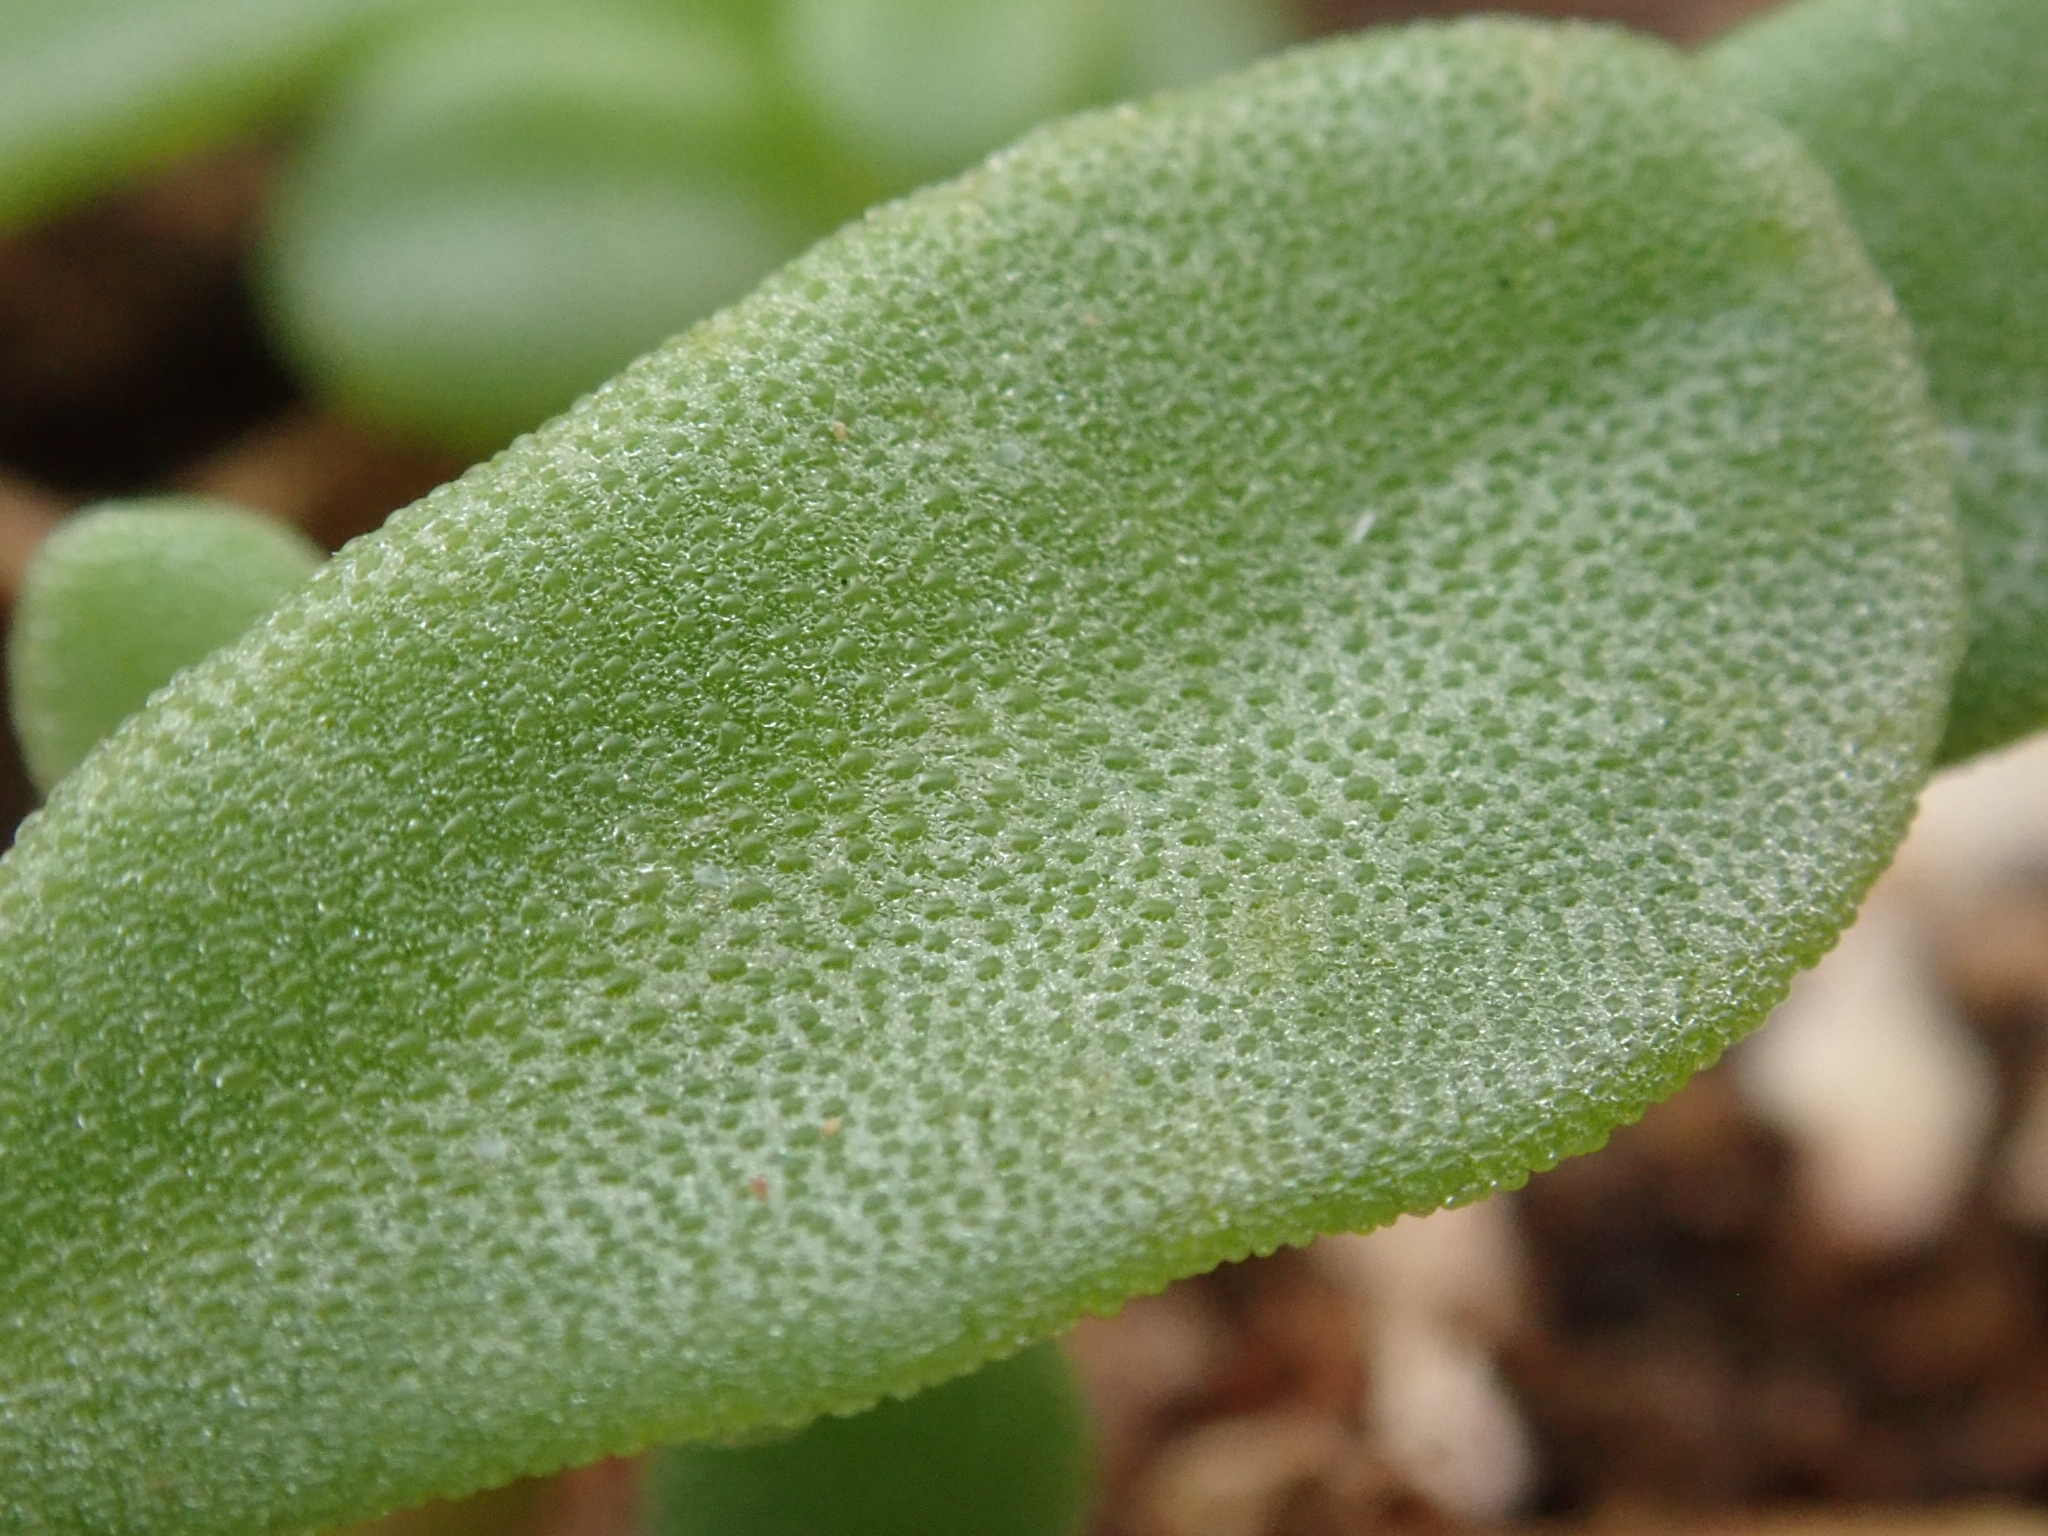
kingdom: Plantae
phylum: Tracheophyta
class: Magnoliopsida
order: Caryophyllales
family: Aizoaceae
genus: Sesuvium
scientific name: Sesuvium revolutifolium
